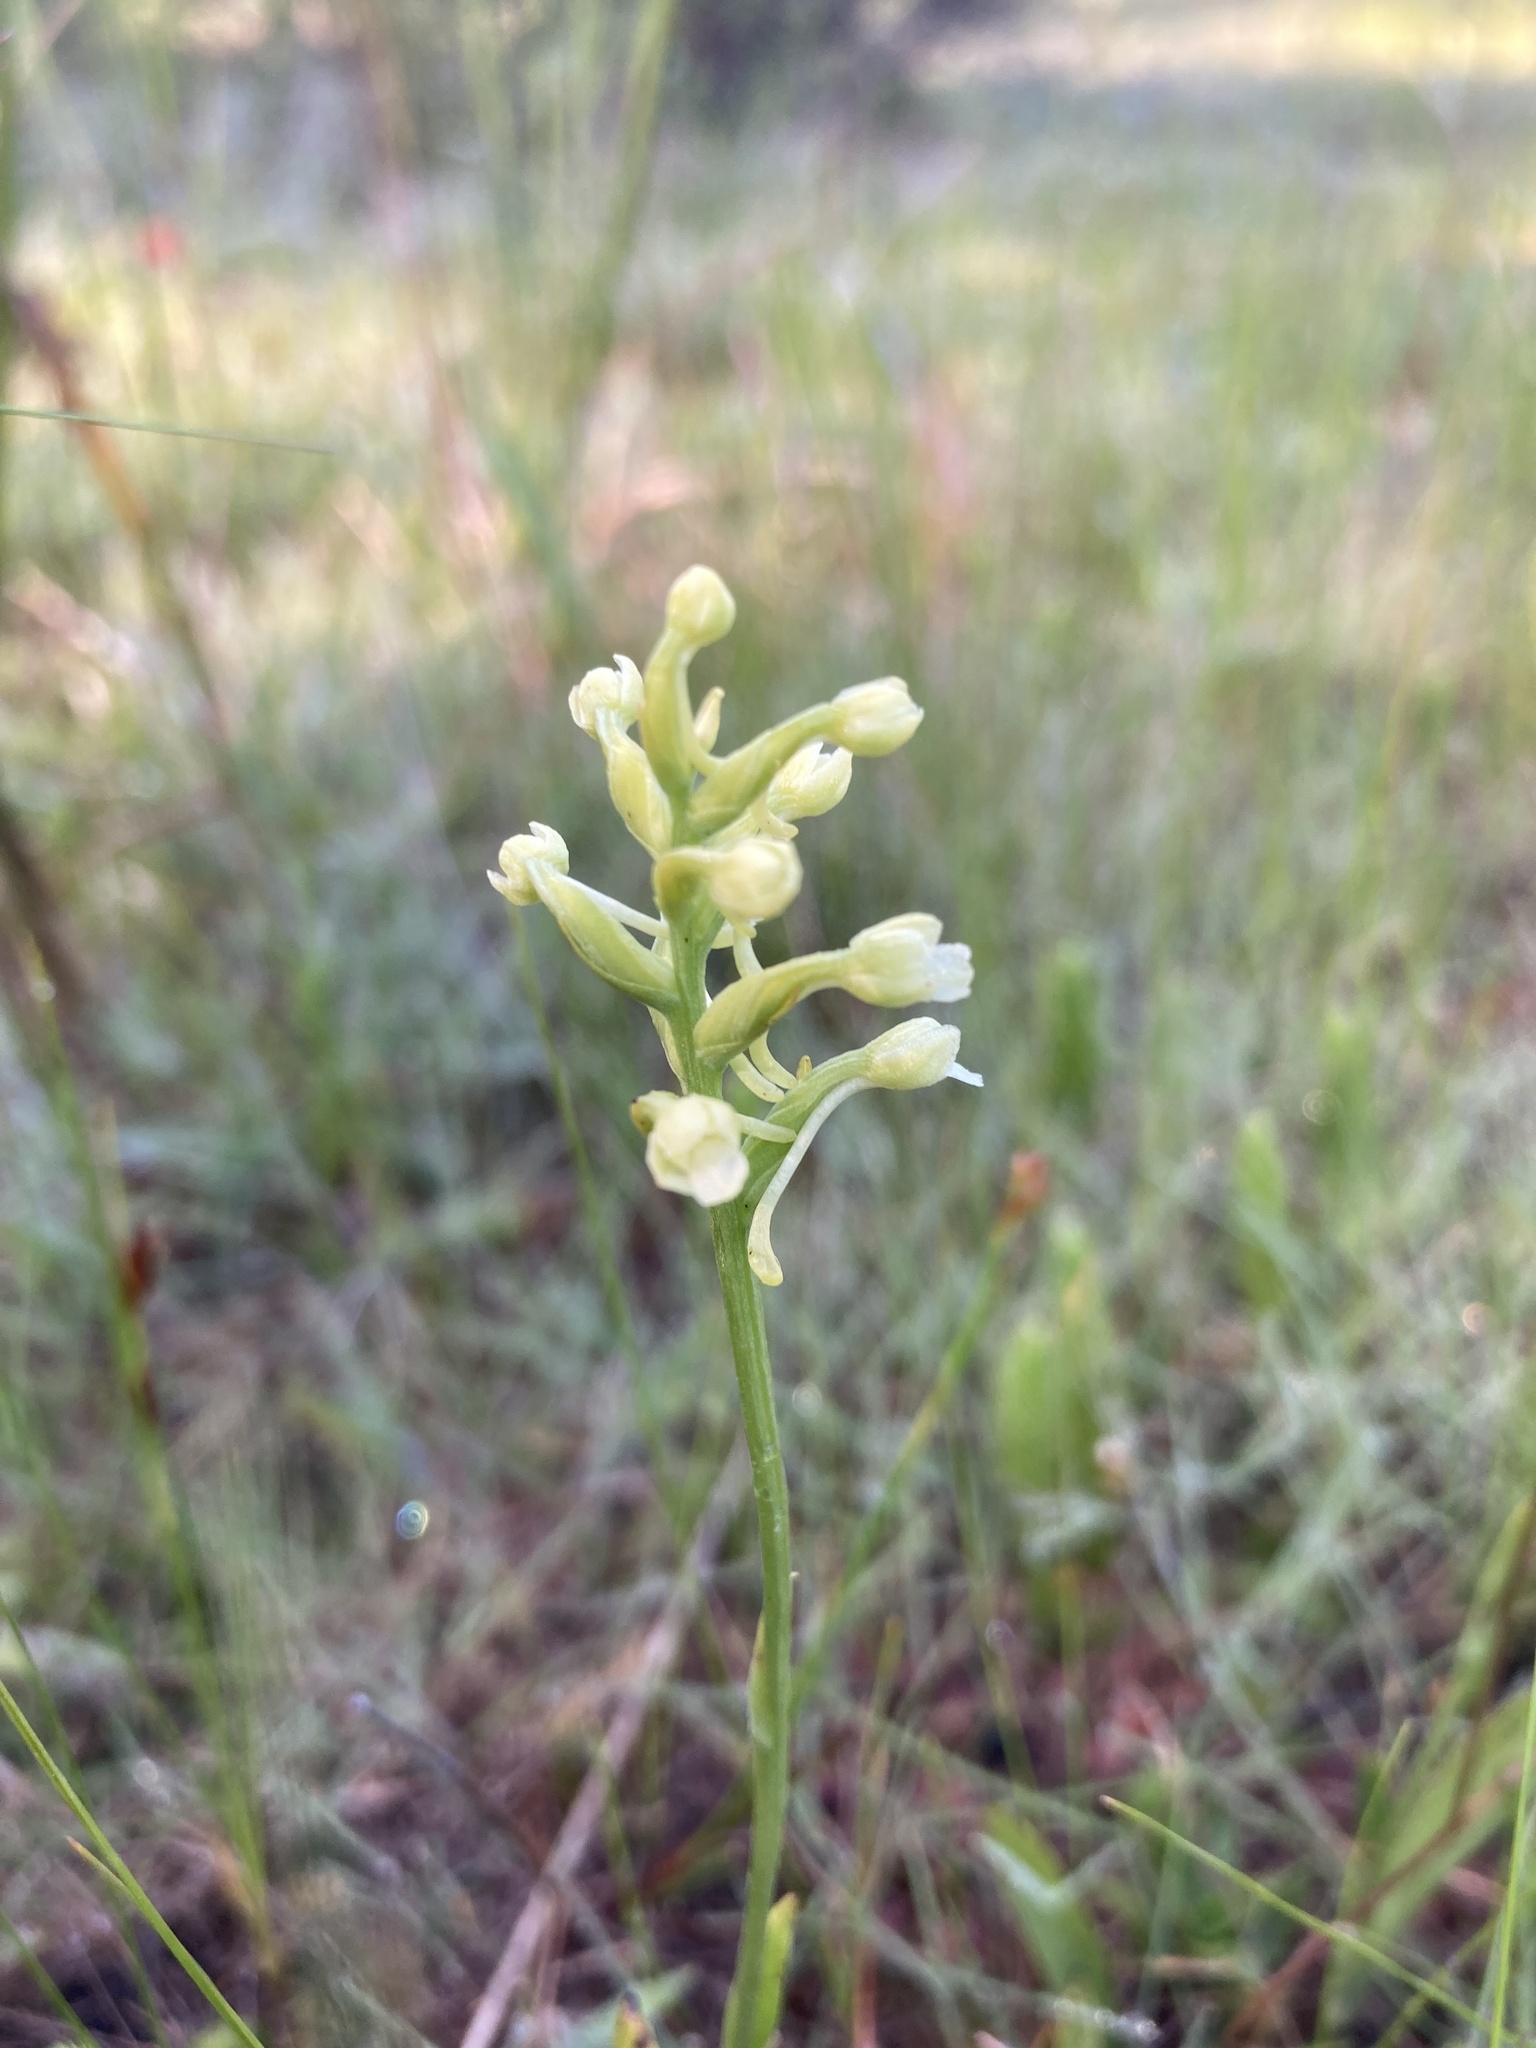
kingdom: Plantae
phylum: Tracheophyta
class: Liliopsida
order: Asparagales
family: Orchidaceae
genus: Platanthera
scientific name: Platanthera clavellata
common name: Club-spur orchid
